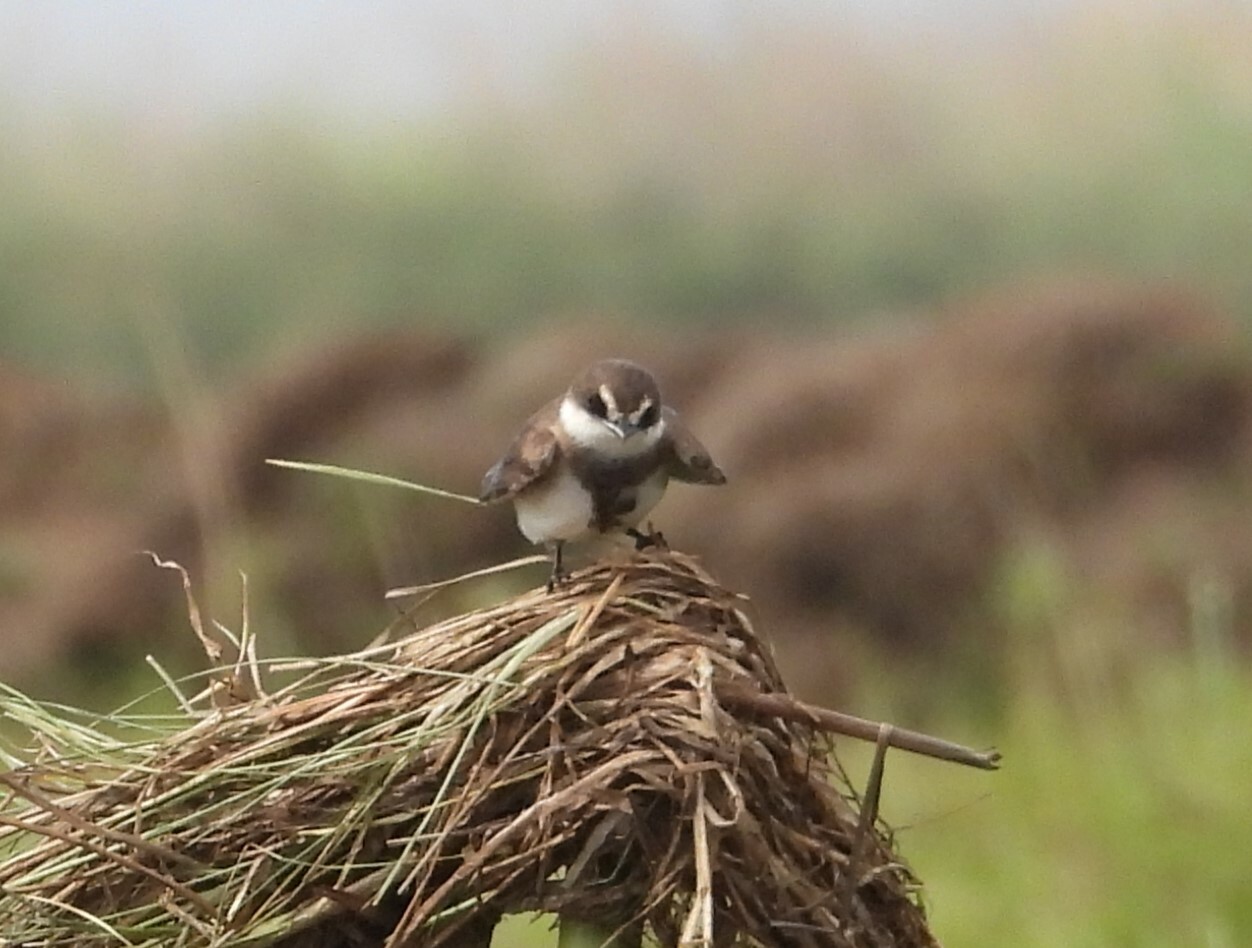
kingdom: Animalia
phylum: Chordata
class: Aves
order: Passeriformes
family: Hirundinidae
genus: Riparia
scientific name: Riparia cincta
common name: Banded martin
